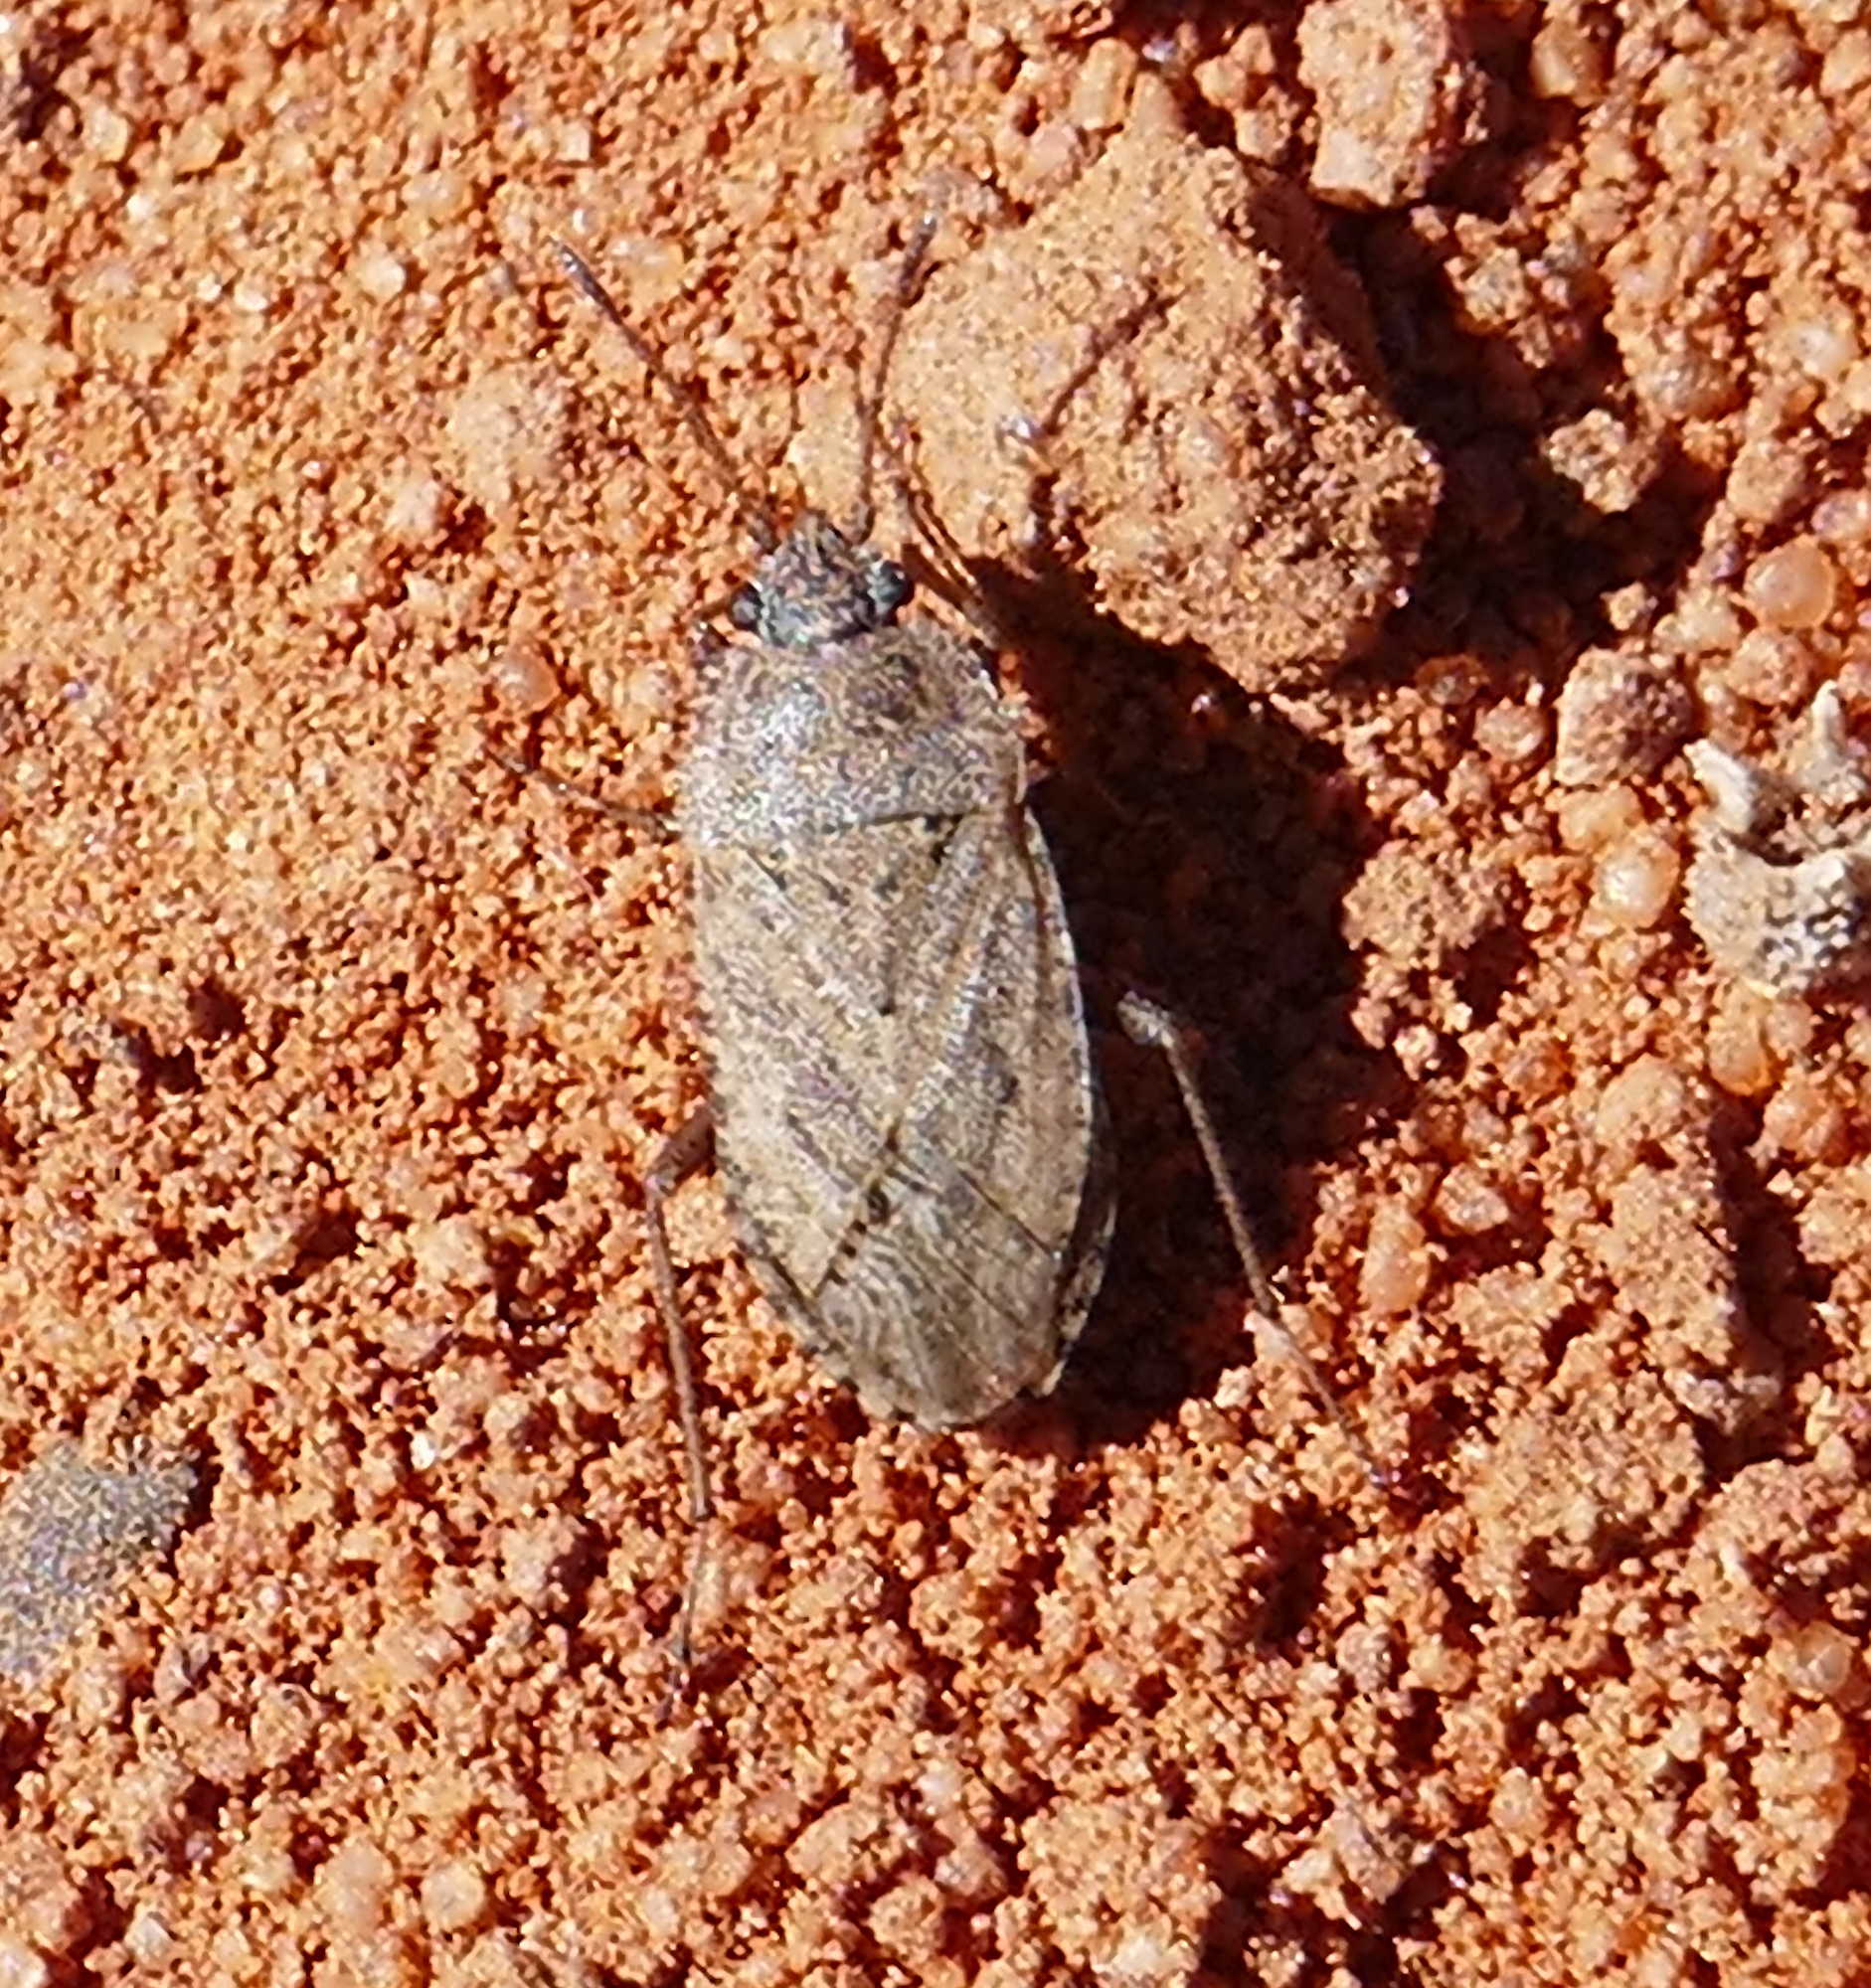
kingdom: Animalia
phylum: Arthropoda
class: Insecta
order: Hemiptera
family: Rhyparochromidae
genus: Emblethis
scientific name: Emblethis vicarius
